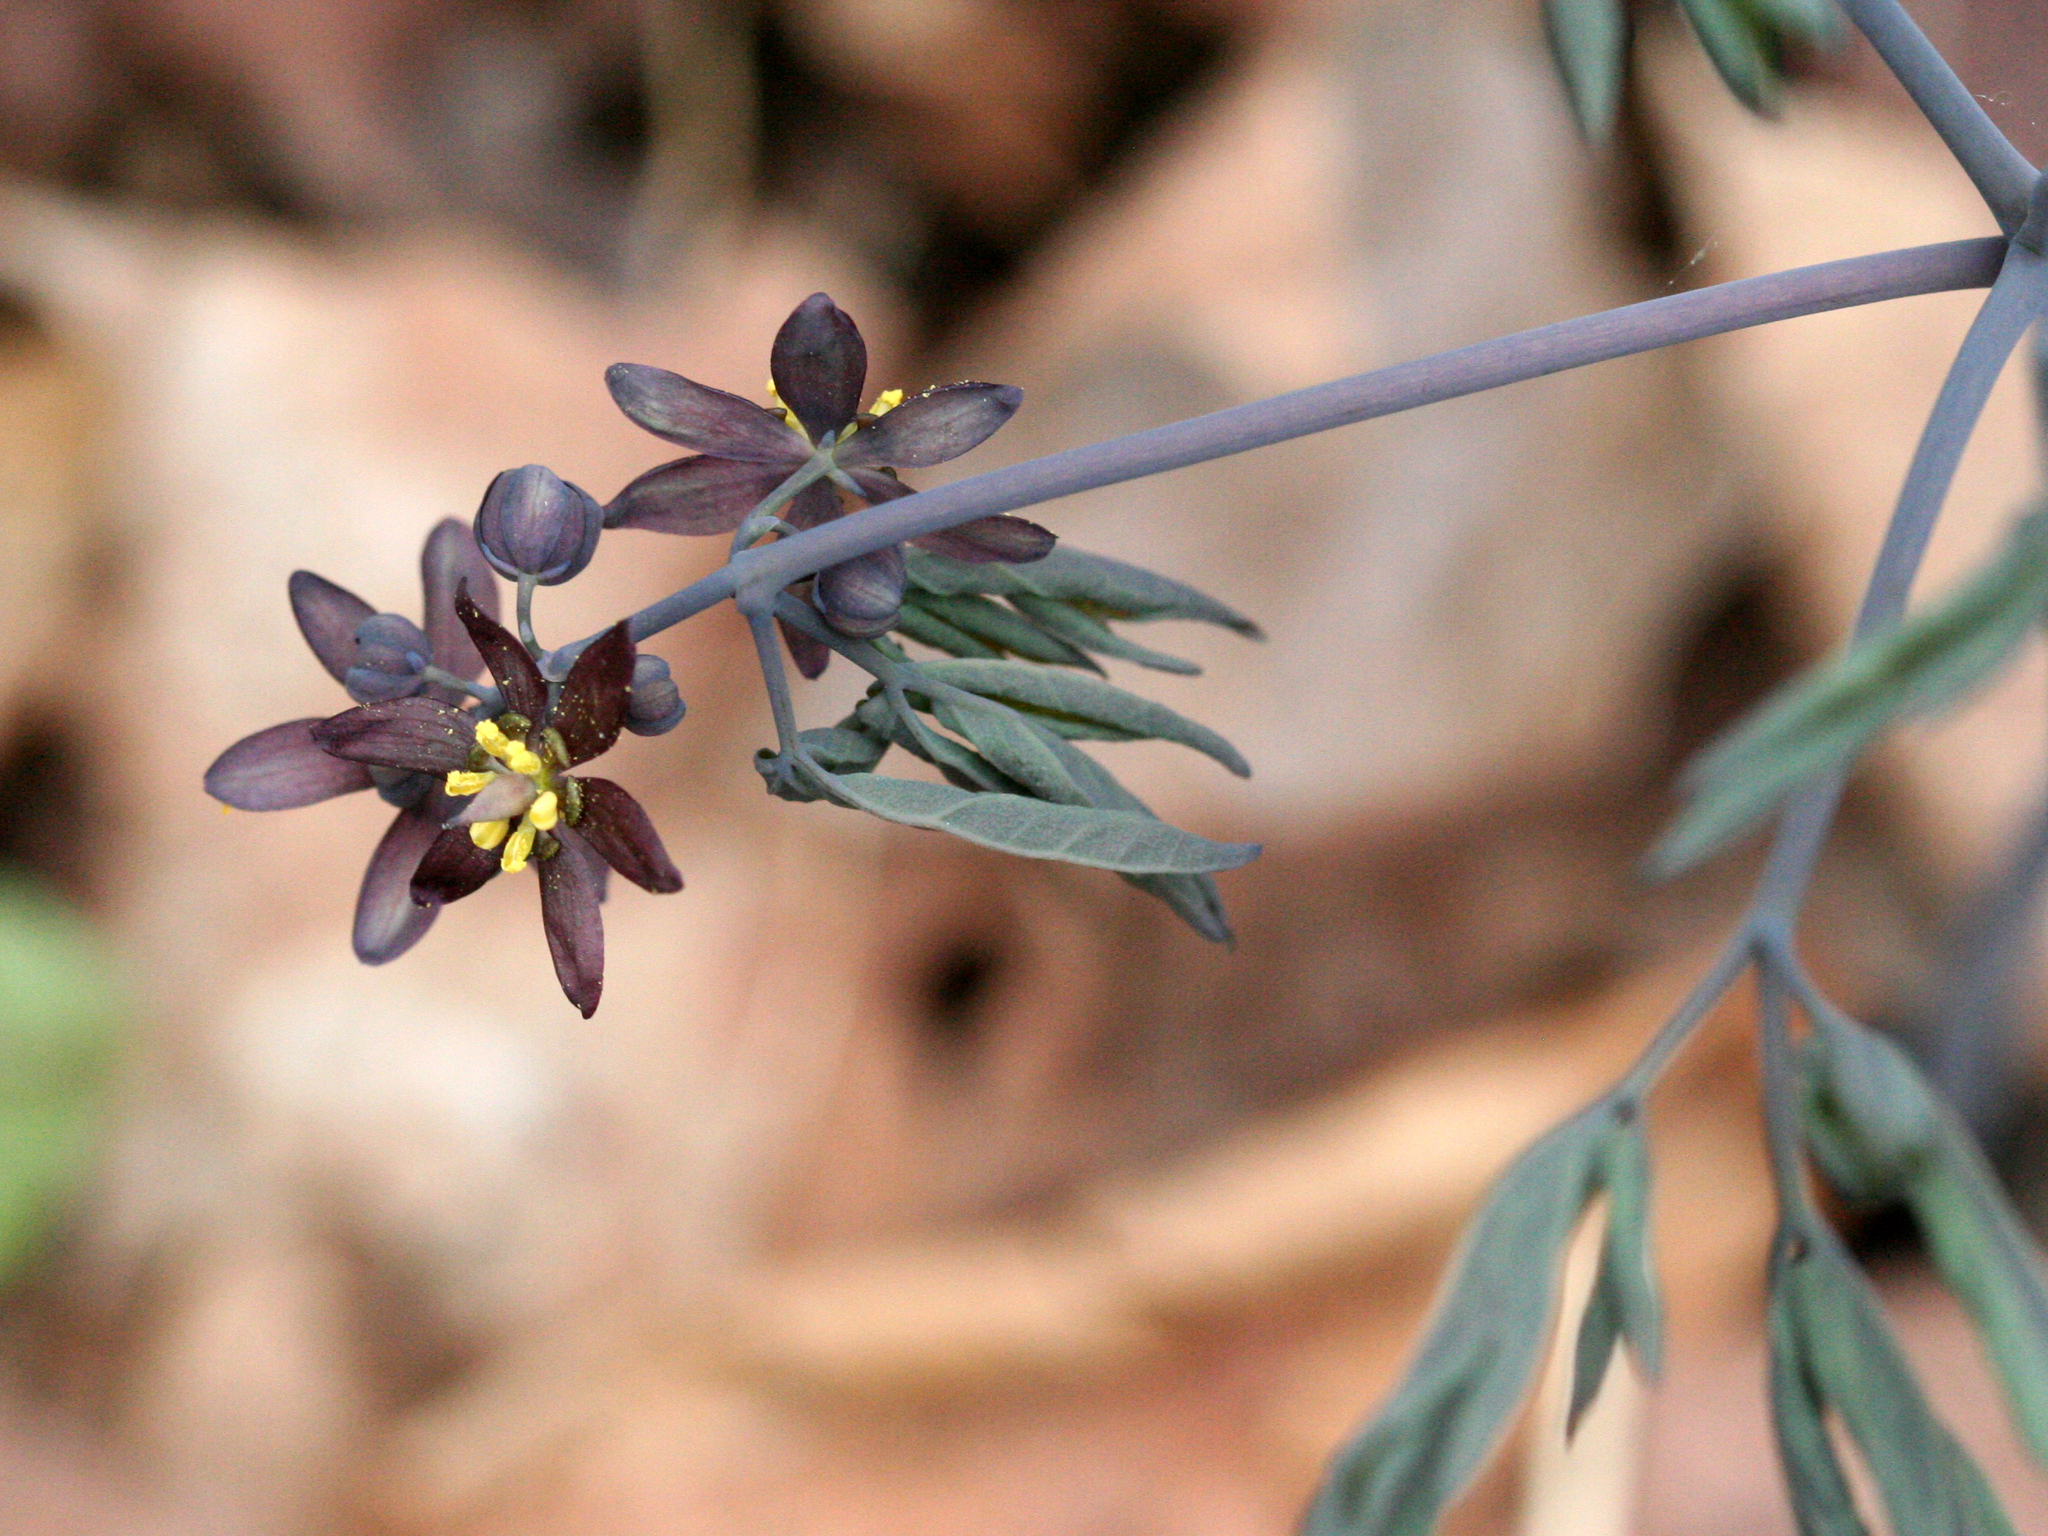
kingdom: Plantae
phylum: Tracheophyta
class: Magnoliopsida
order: Ranunculales
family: Berberidaceae
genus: Caulophyllum
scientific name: Caulophyllum giganteum
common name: Blue cohosh
